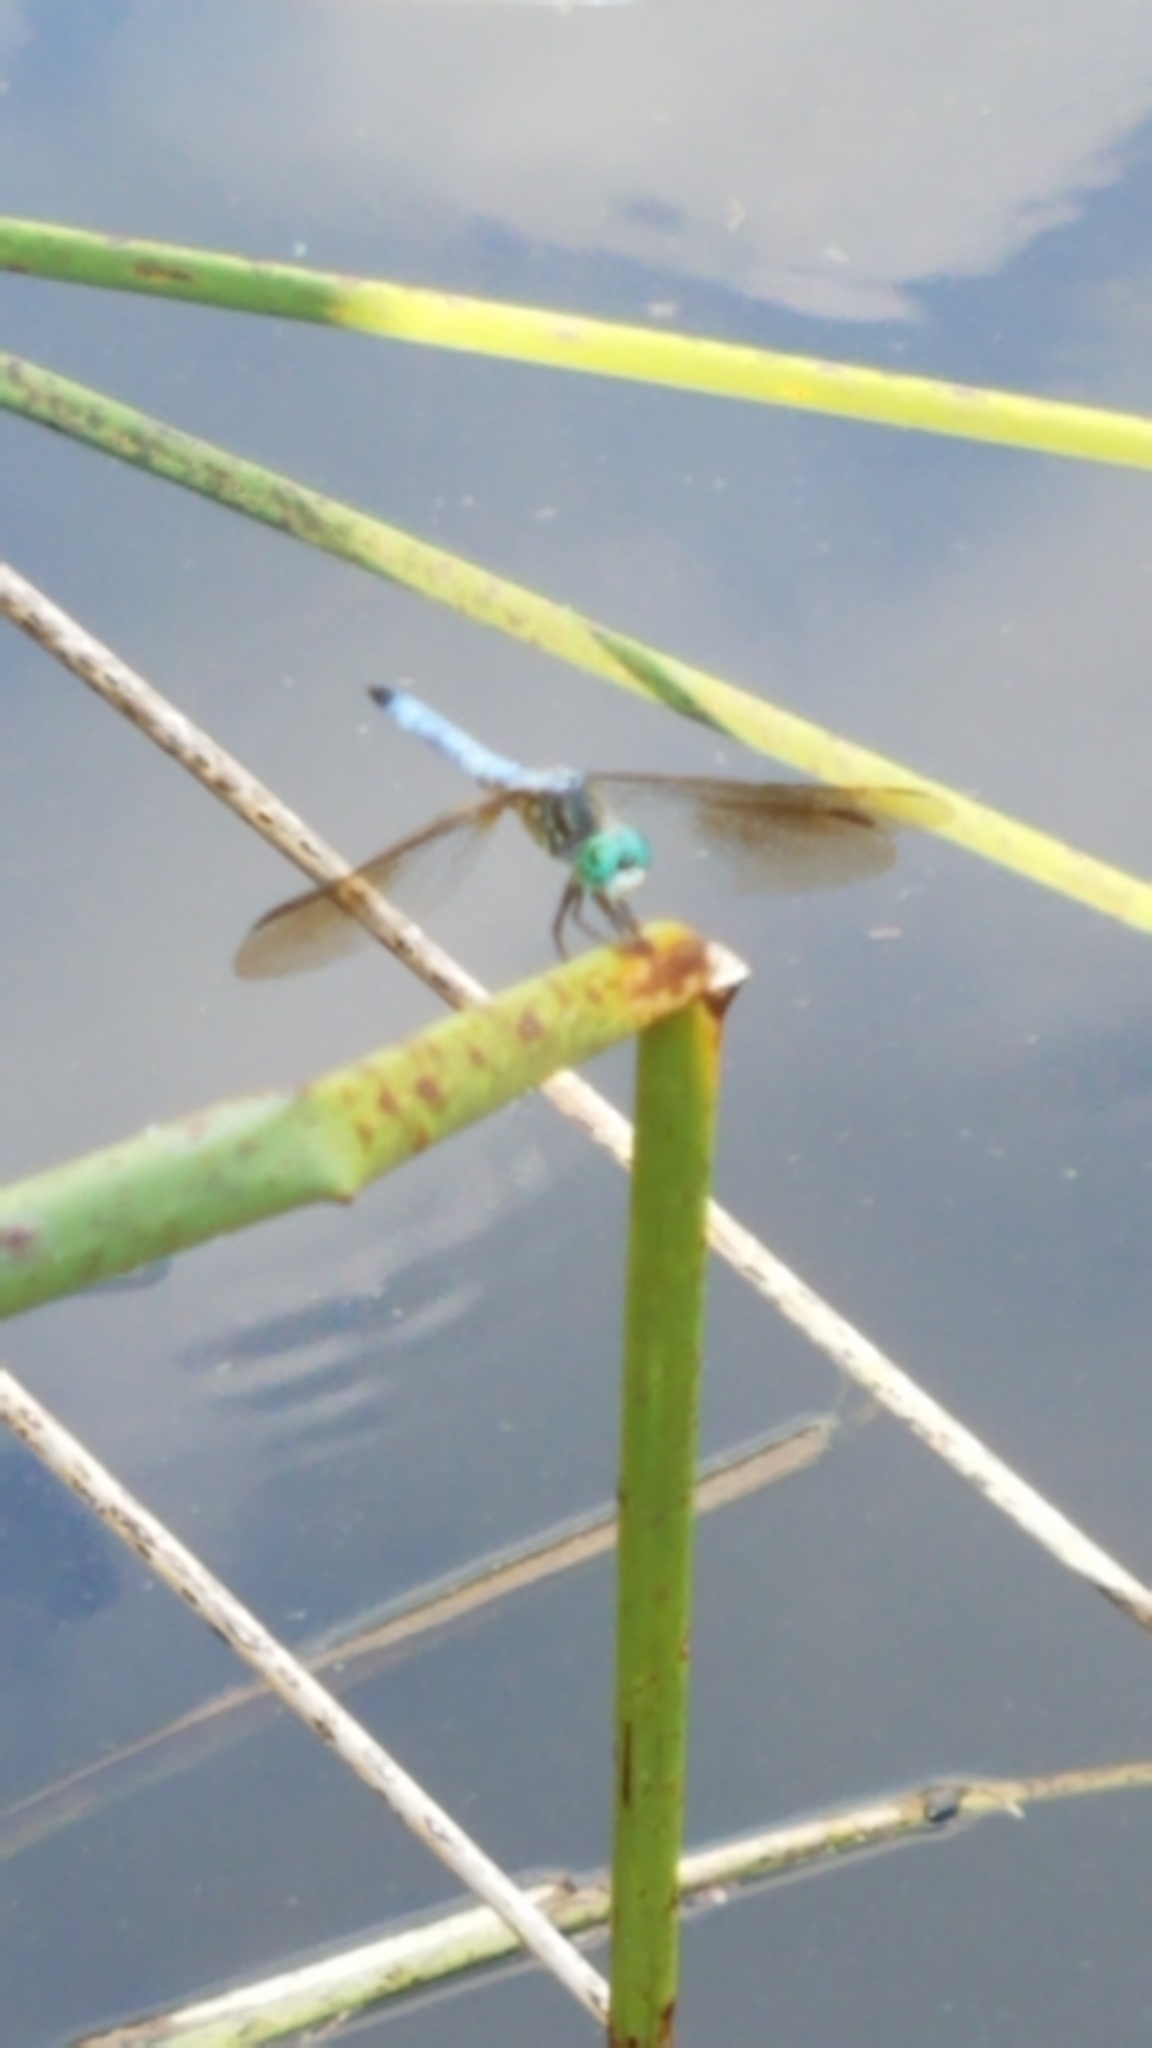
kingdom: Animalia
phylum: Arthropoda
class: Insecta
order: Odonata
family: Libellulidae
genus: Pachydiplax
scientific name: Pachydiplax longipennis
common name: Blue dasher
